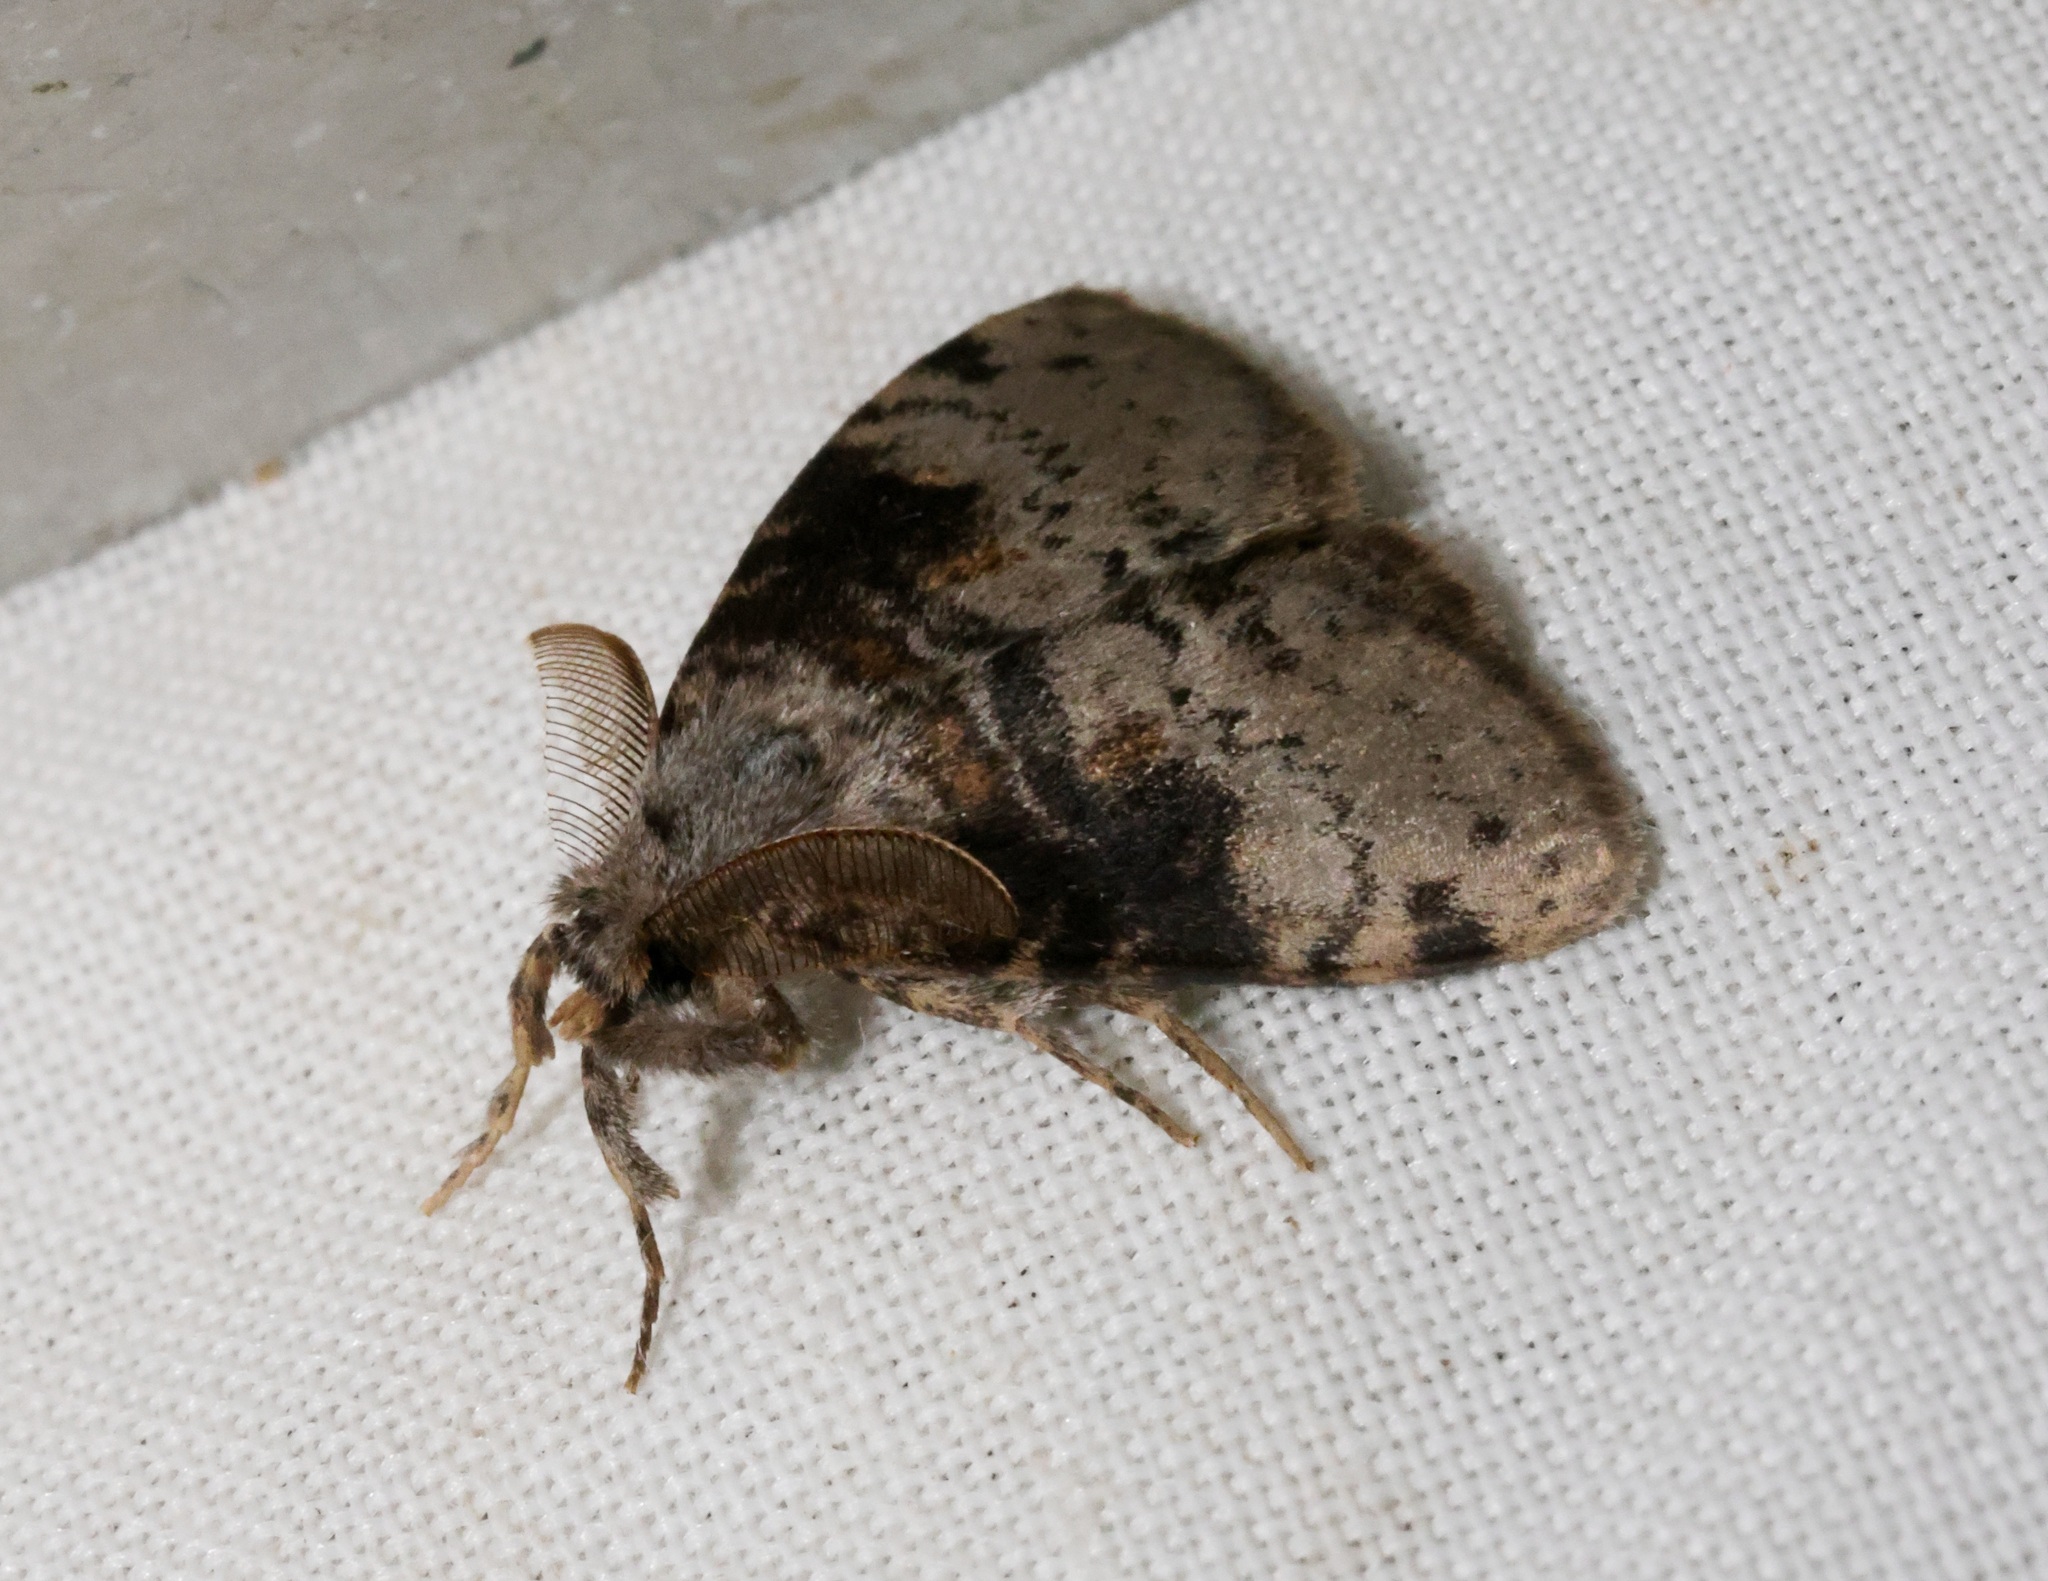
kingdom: Animalia
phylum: Arthropoda
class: Insecta
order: Lepidoptera
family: Erebidae
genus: Ilema
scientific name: Ilema costalis
